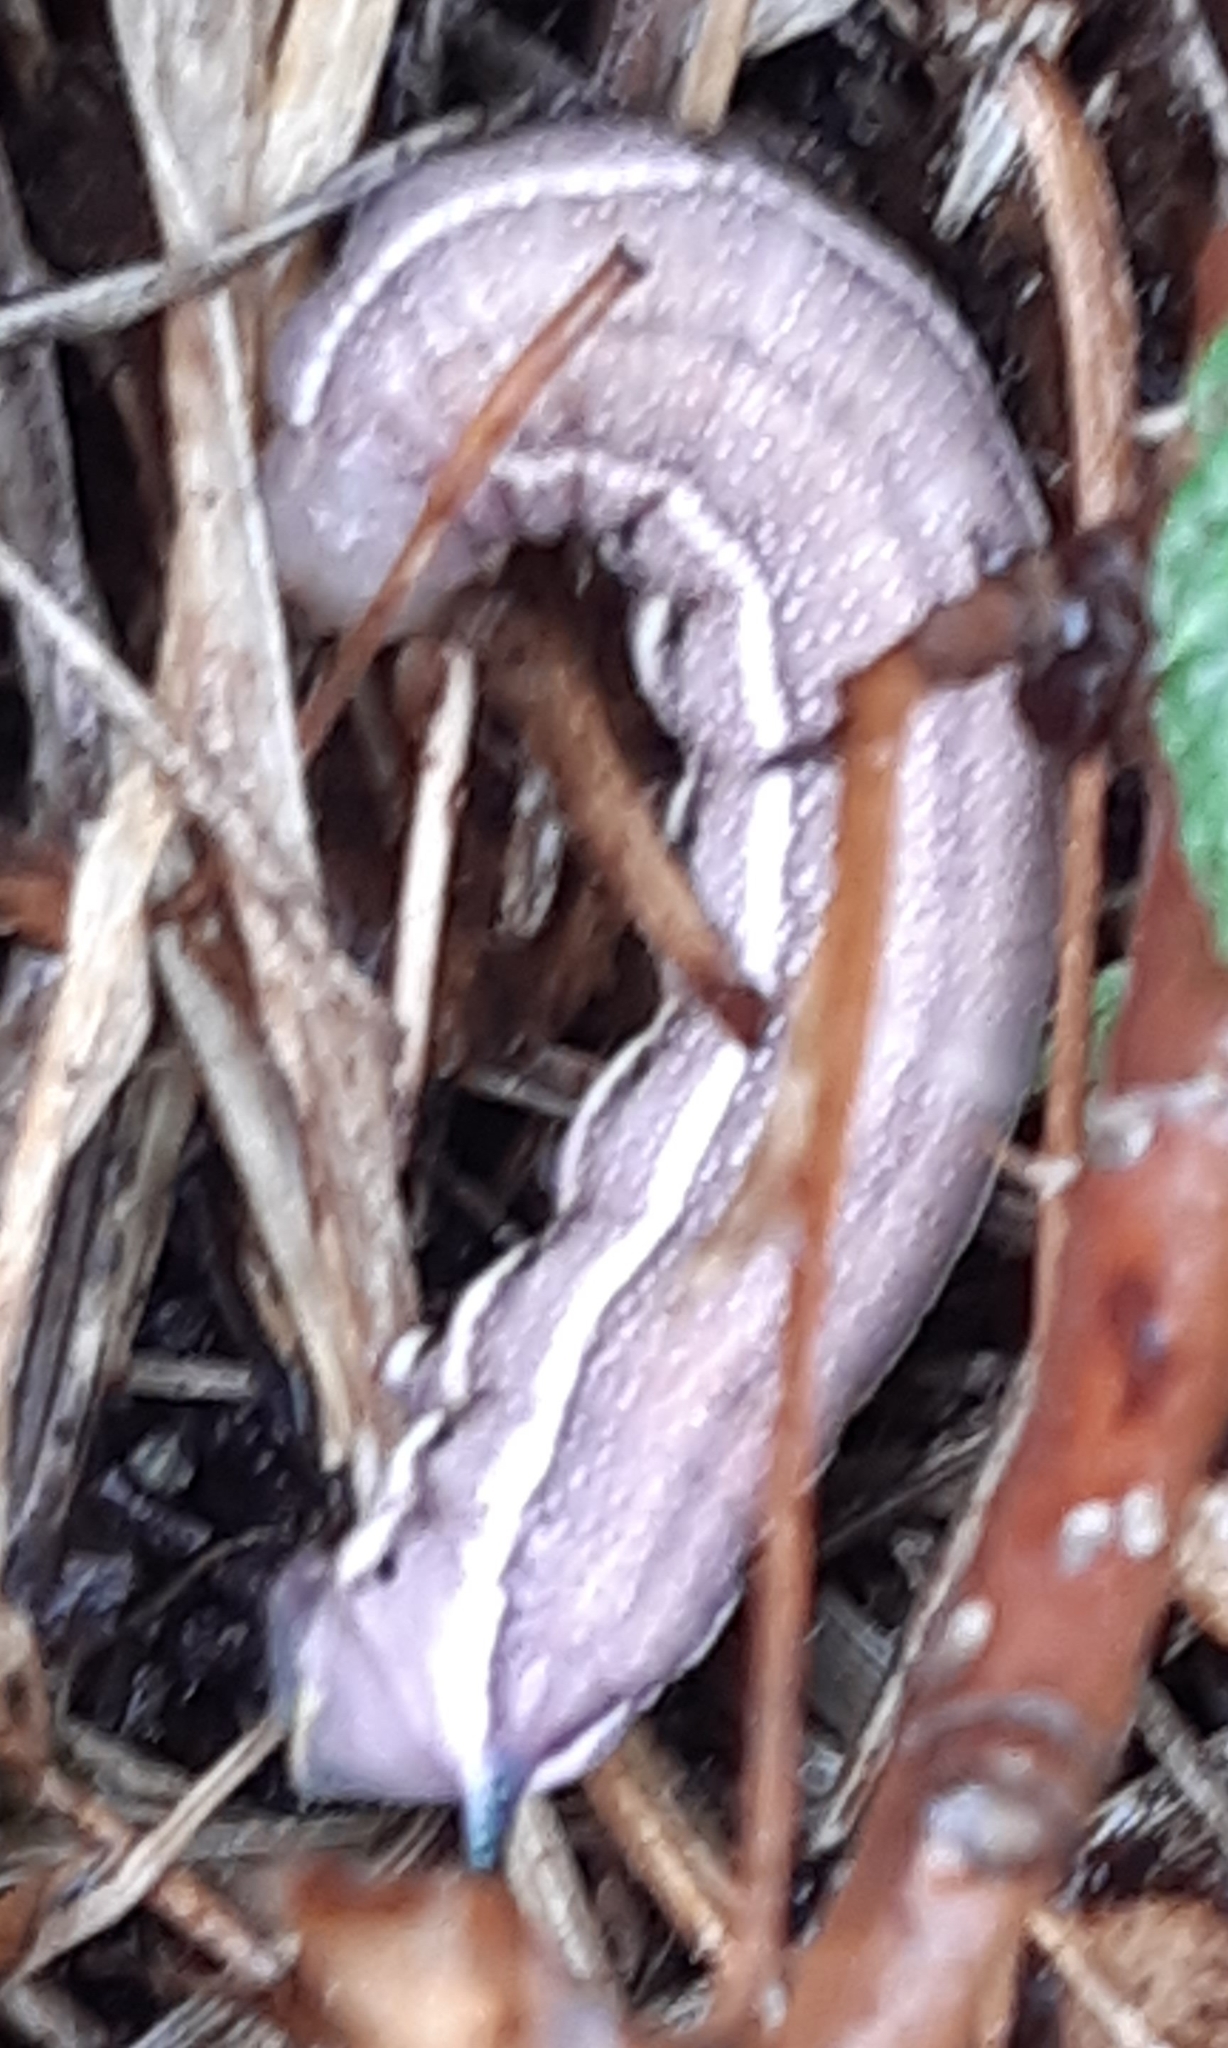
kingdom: Animalia
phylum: Arthropoda
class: Insecta
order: Lepidoptera
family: Sphingidae
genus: Macroglossum
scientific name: Macroglossum stellatarum
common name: Humming-bird hawk-moth
